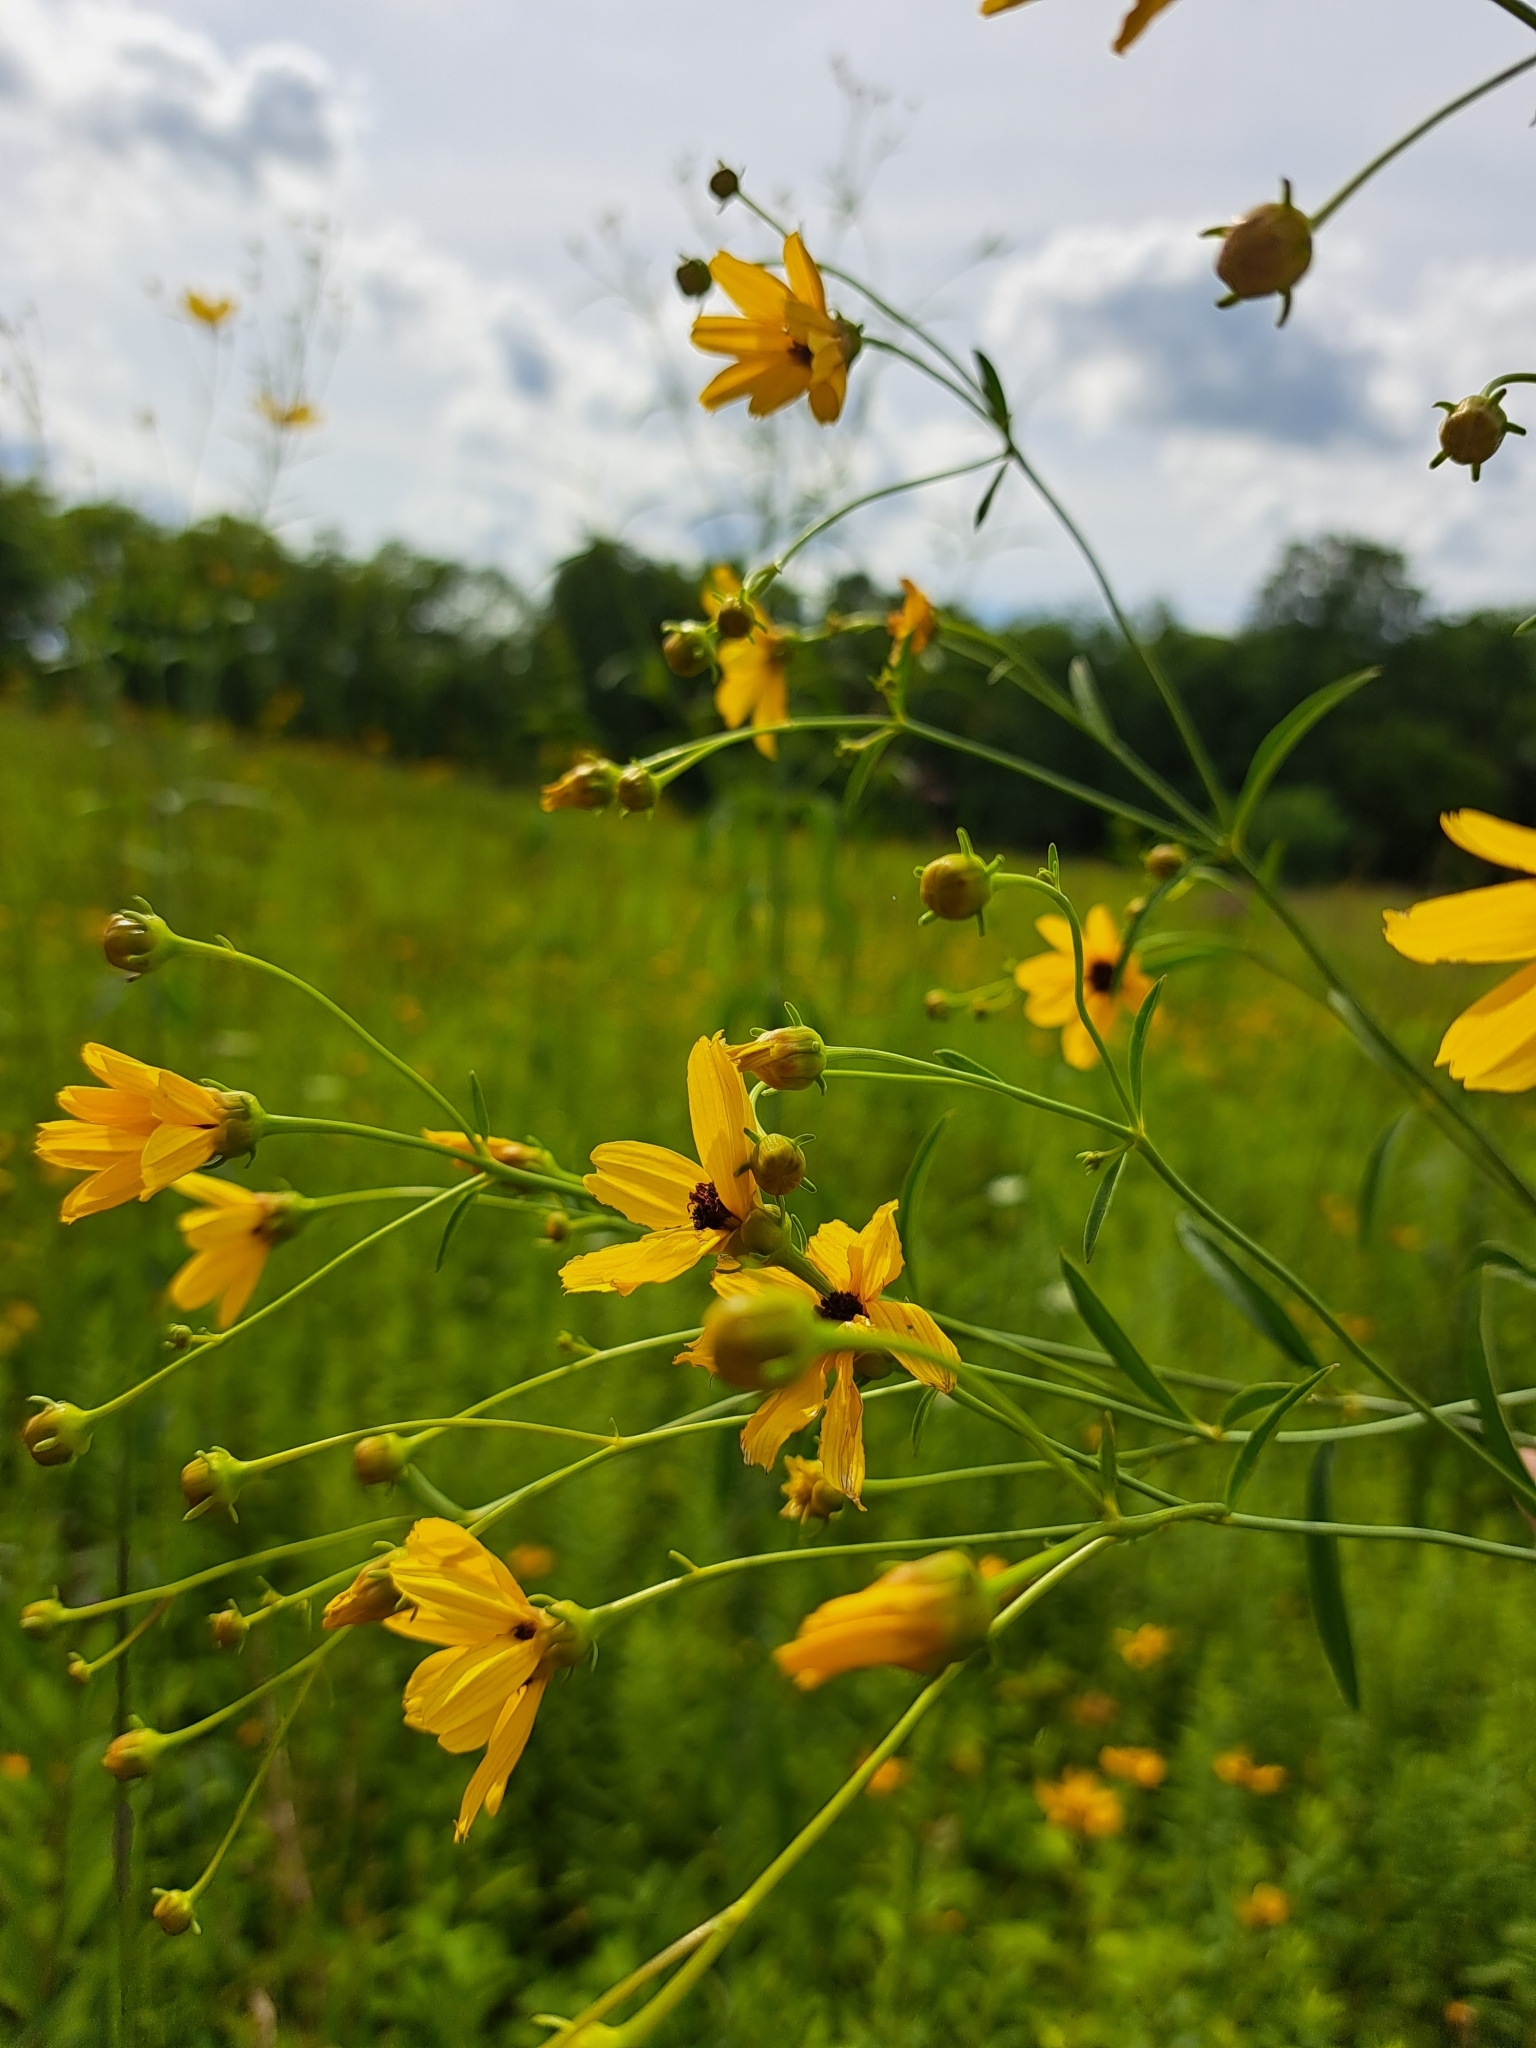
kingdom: Plantae
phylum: Tracheophyta
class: Magnoliopsida
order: Asterales
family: Asteraceae
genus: Coreopsis
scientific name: Coreopsis tripteris
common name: Tall coreopsis
